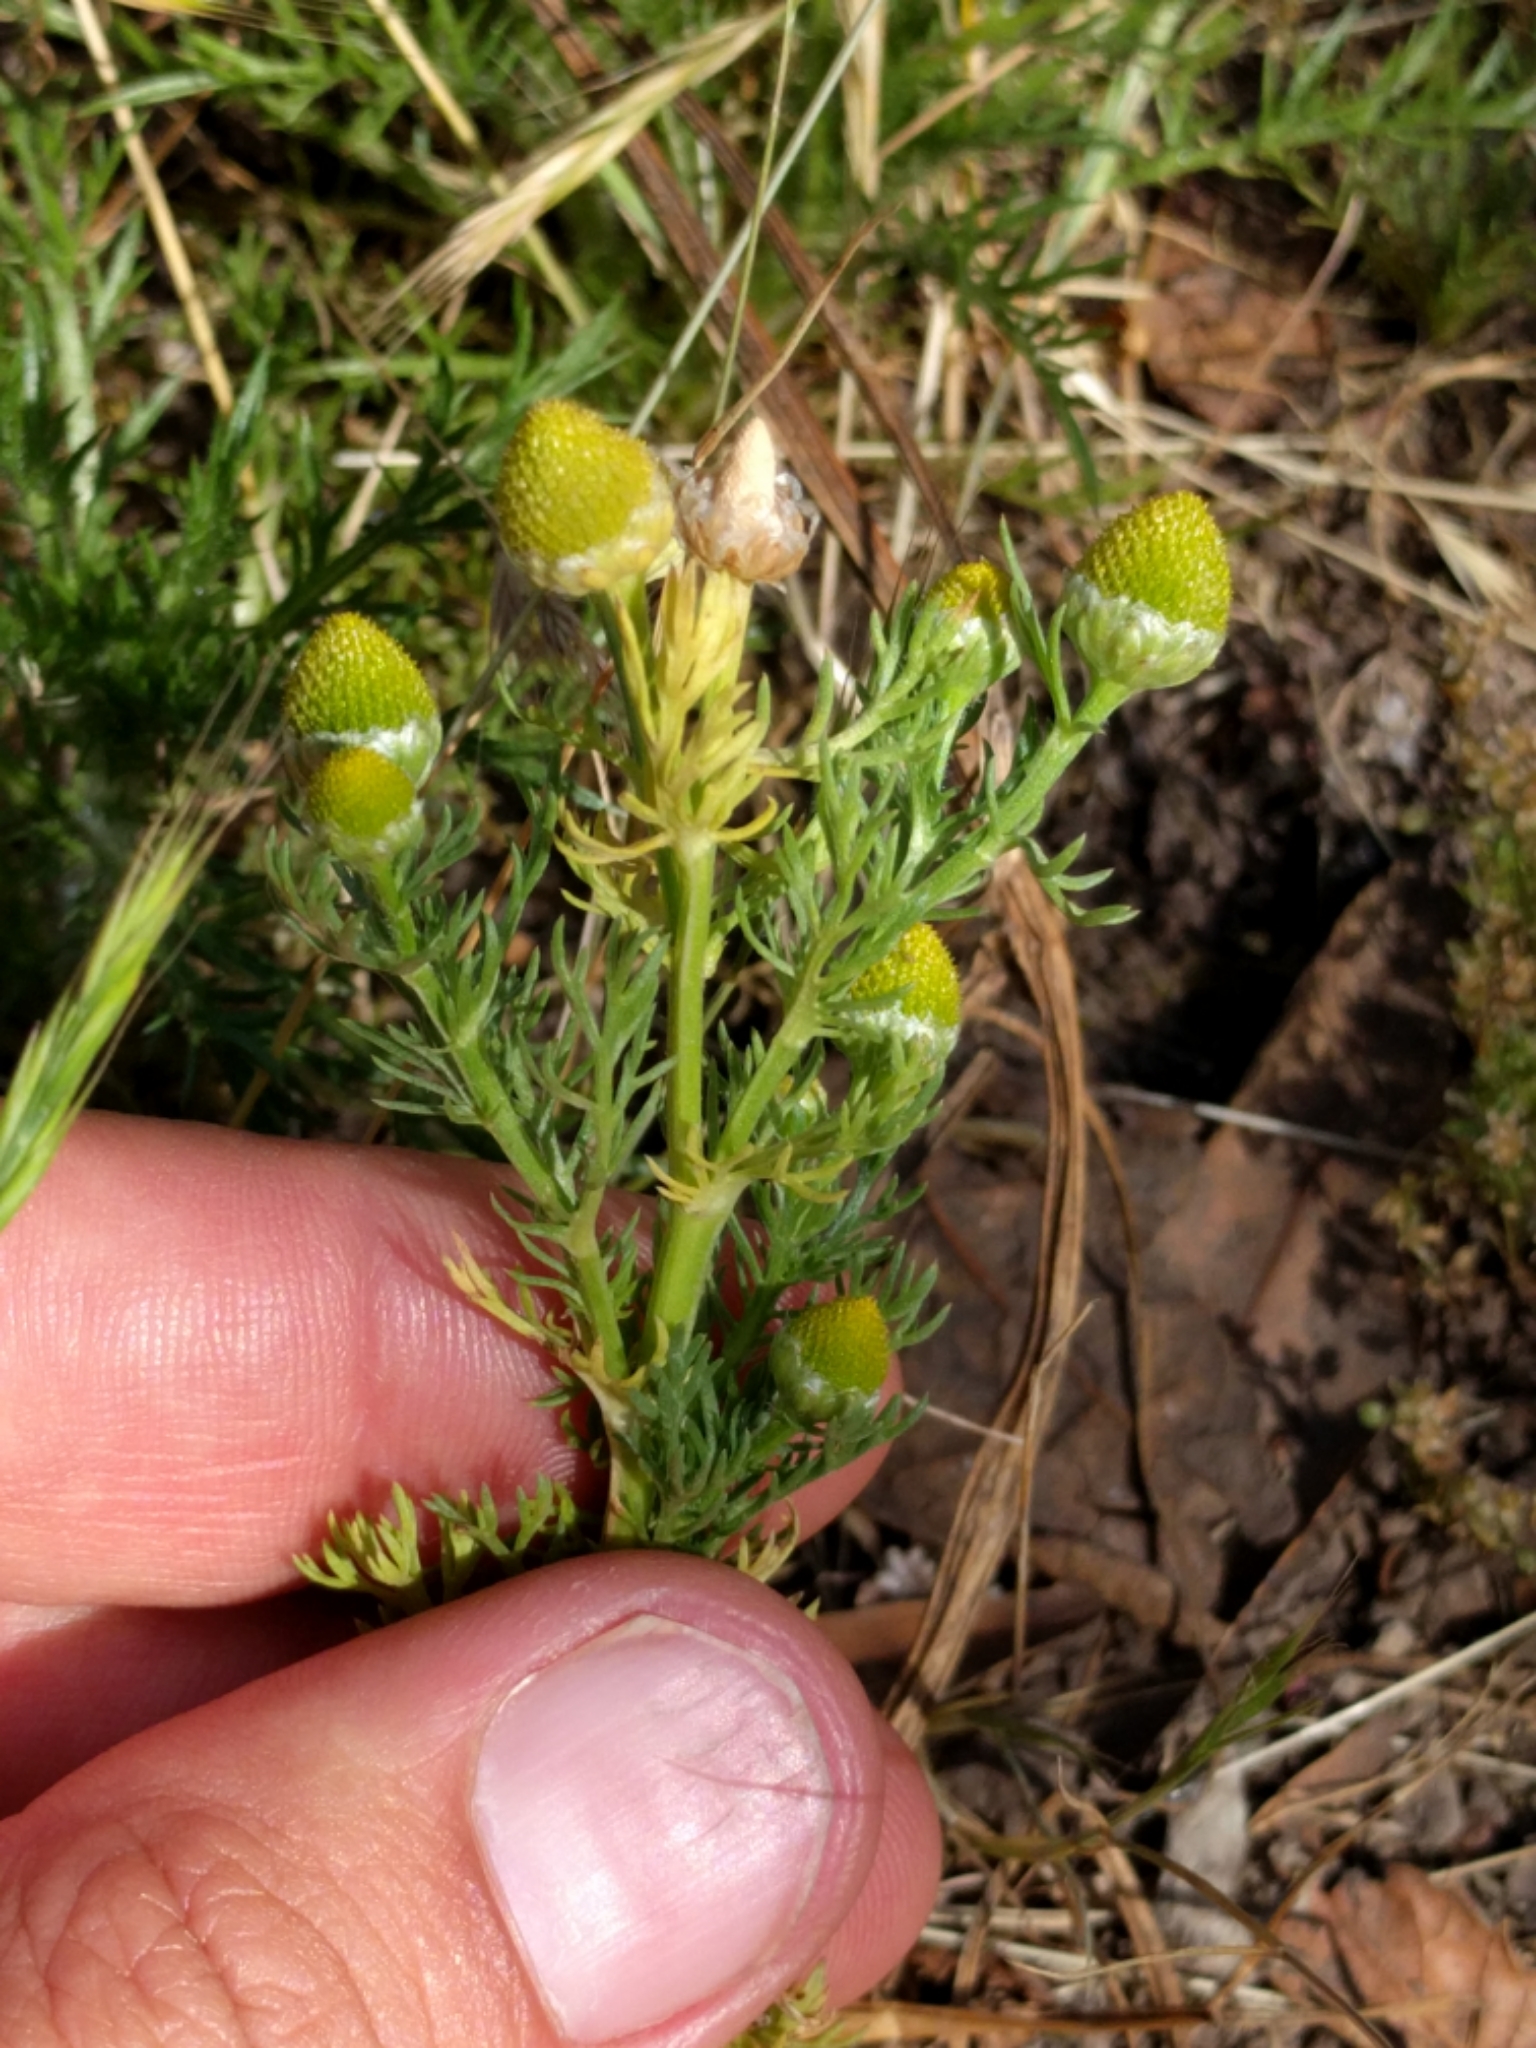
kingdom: Plantae
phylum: Tracheophyta
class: Magnoliopsida
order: Asterales
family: Asteraceae
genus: Matricaria
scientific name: Matricaria discoidea
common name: Disc mayweed
